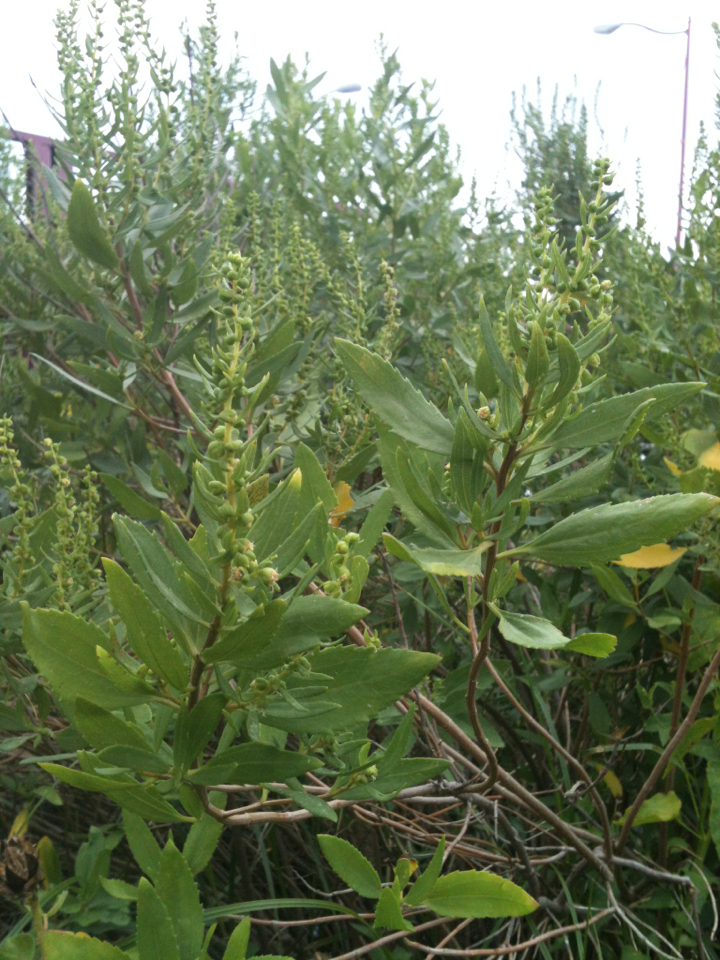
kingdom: Plantae
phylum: Tracheophyta
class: Magnoliopsida
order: Asterales
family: Asteraceae
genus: Iva
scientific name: Iva frutescens
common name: Big-leaved marsh-elder
